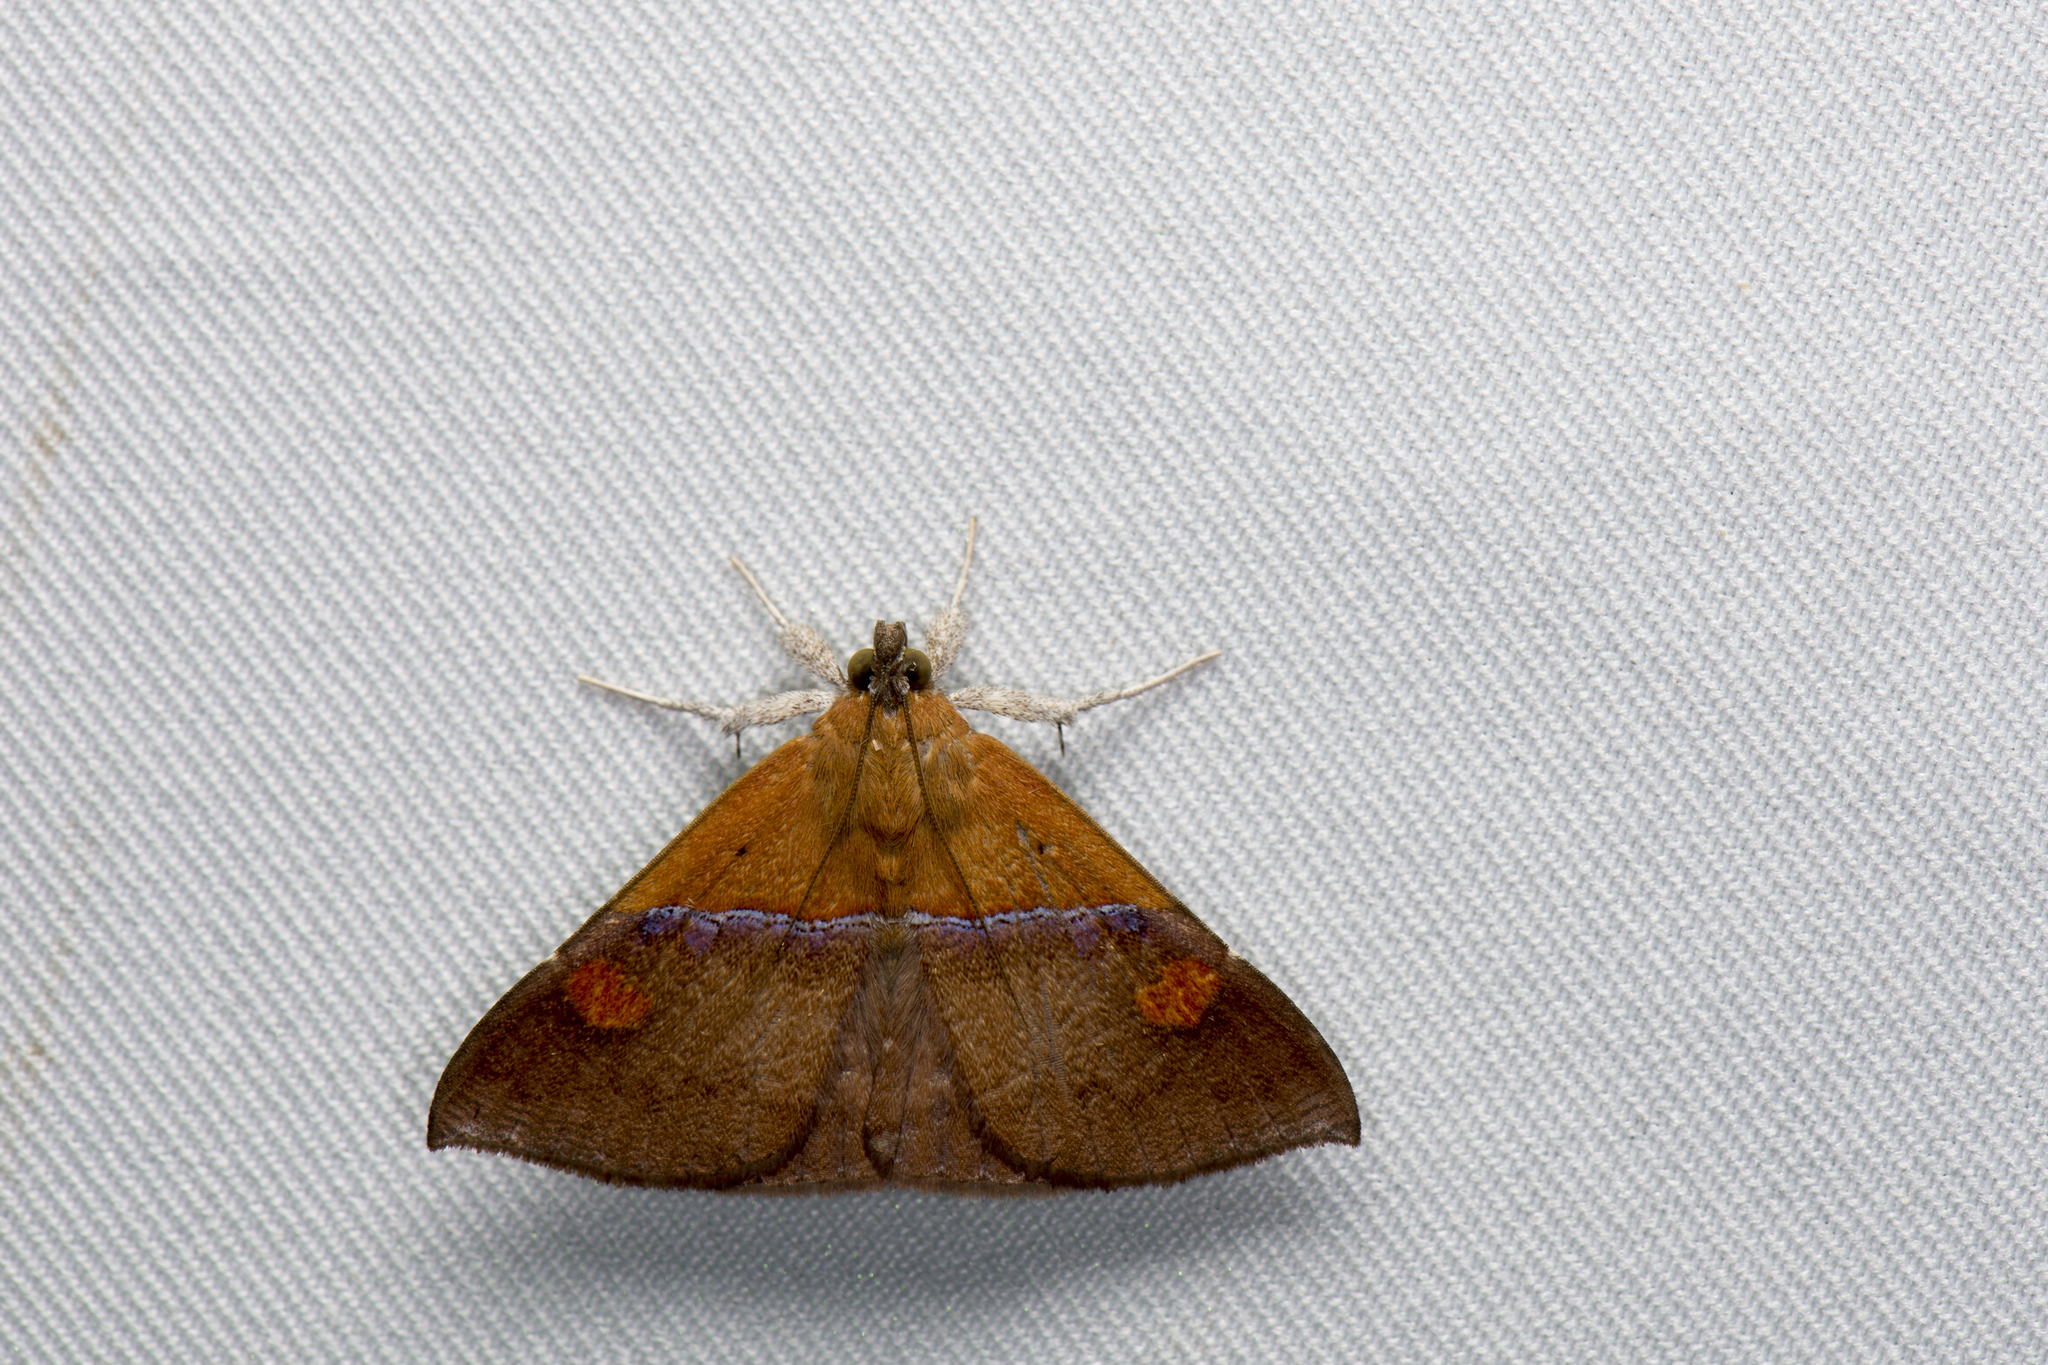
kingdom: Animalia
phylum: Arthropoda
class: Insecta
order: Lepidoptera
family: Erebidae
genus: Sympis
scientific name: Sympis rufibasis
